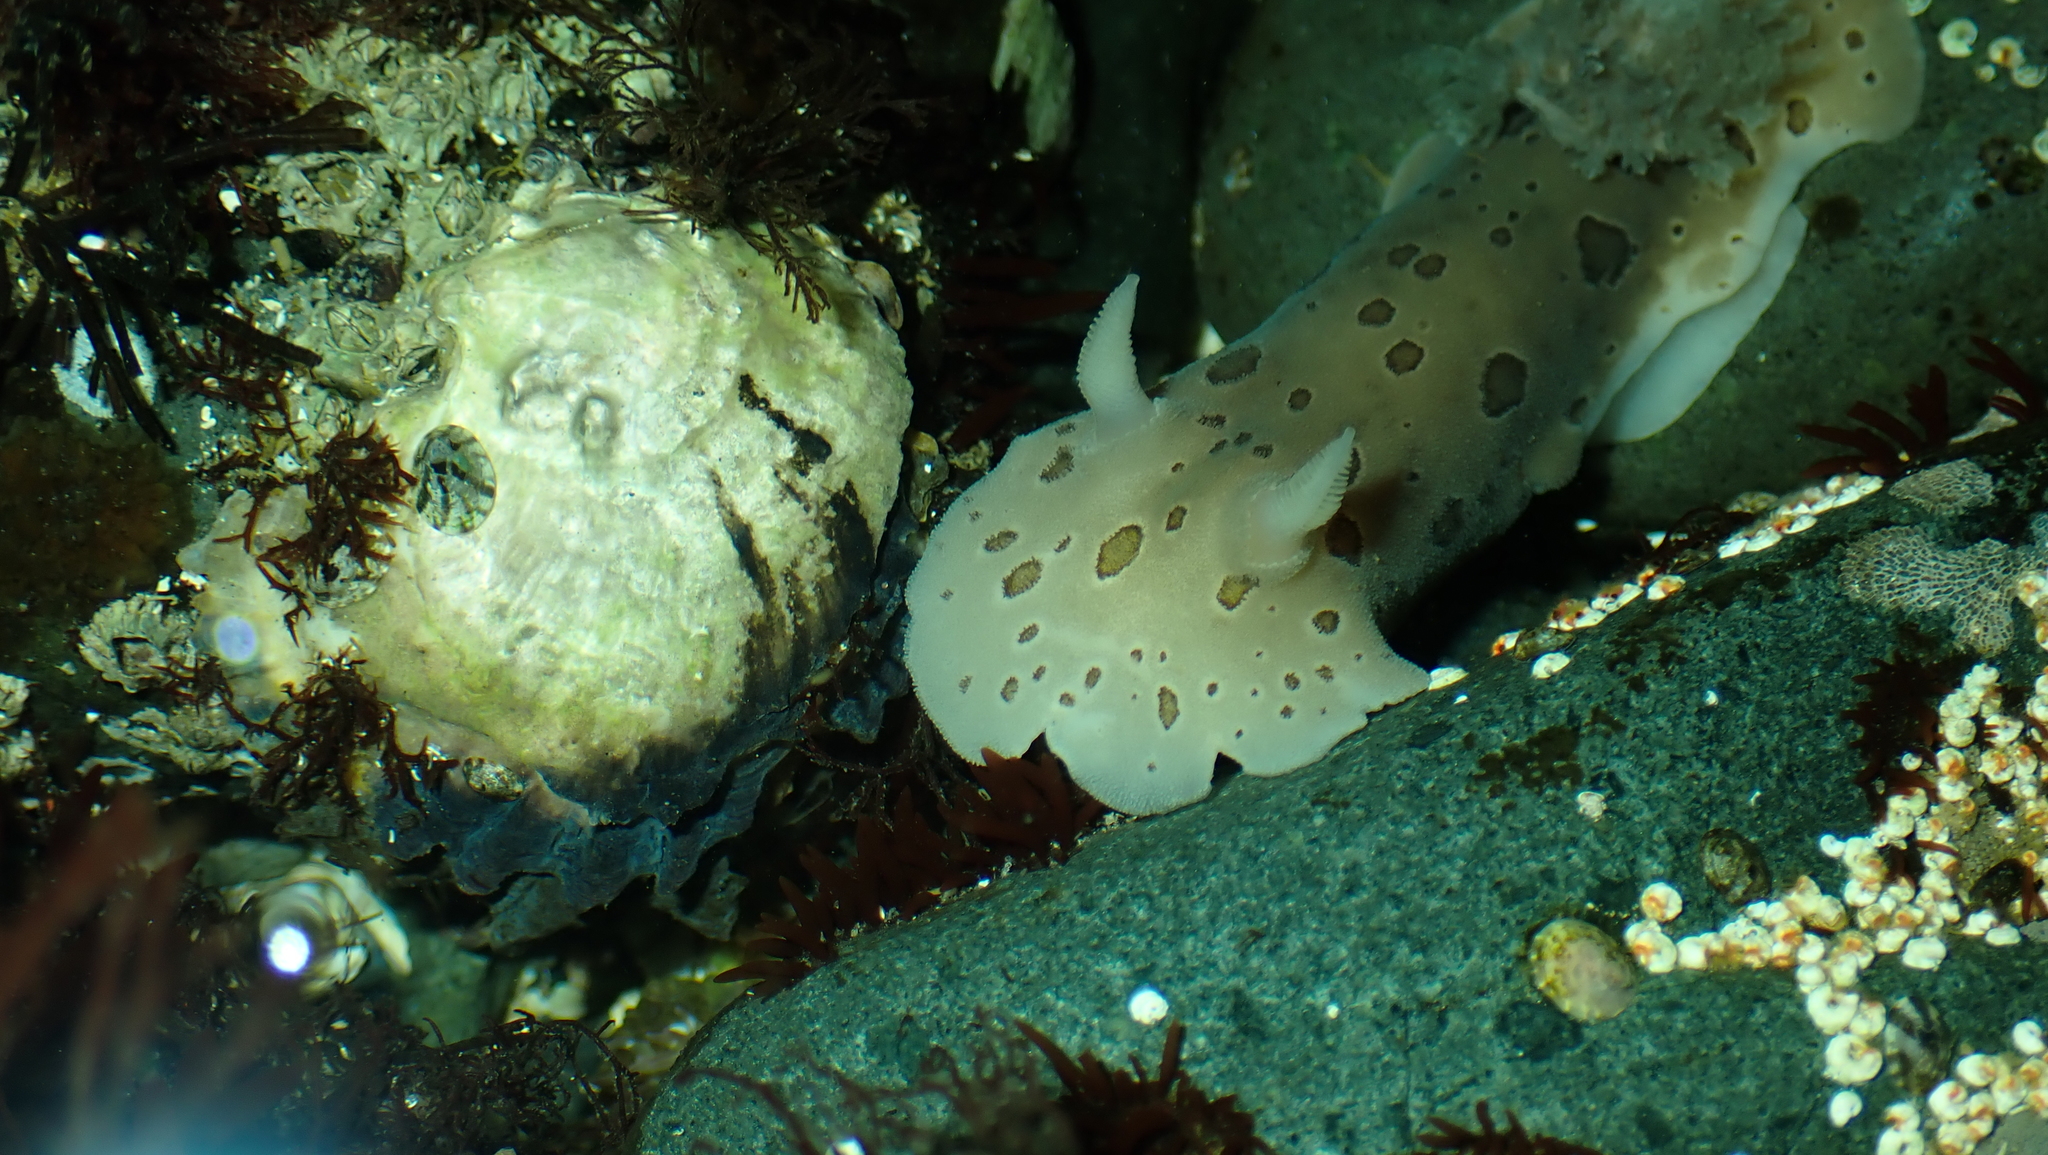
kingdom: Animalia
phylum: Mollusca
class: Gastropoda
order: Nudibranchia
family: Discodorididae
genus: Diaulula
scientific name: Diaulula odonoghuei
